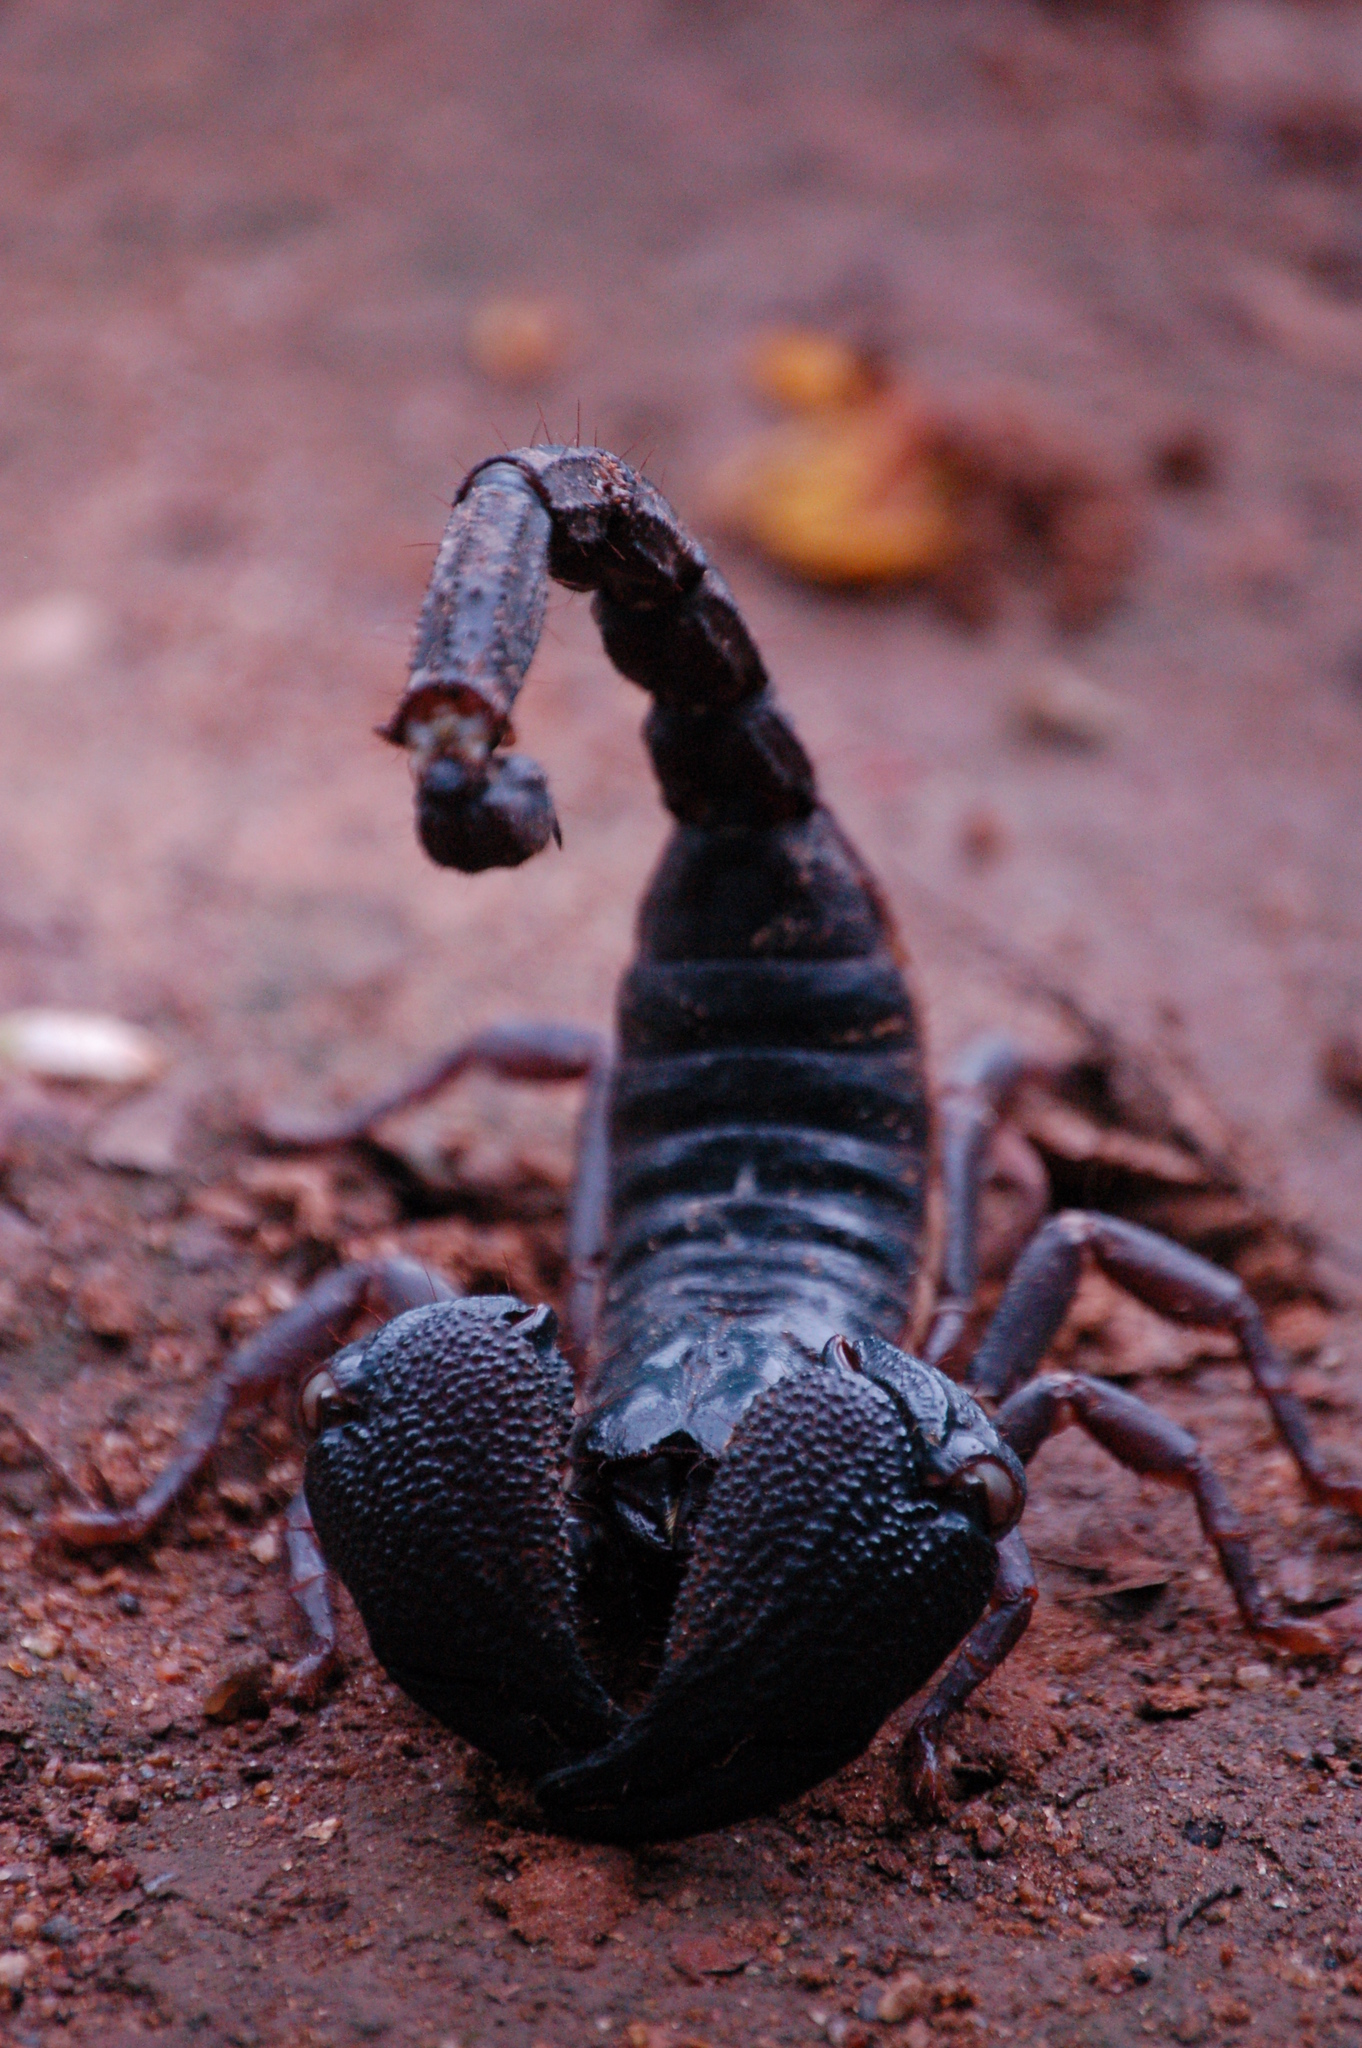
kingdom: Animalia
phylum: Arthropoda
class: Arachnida
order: Scorpiones
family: Scorpionidae
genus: Gigantometrus
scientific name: Gigantometrus swammerdami
